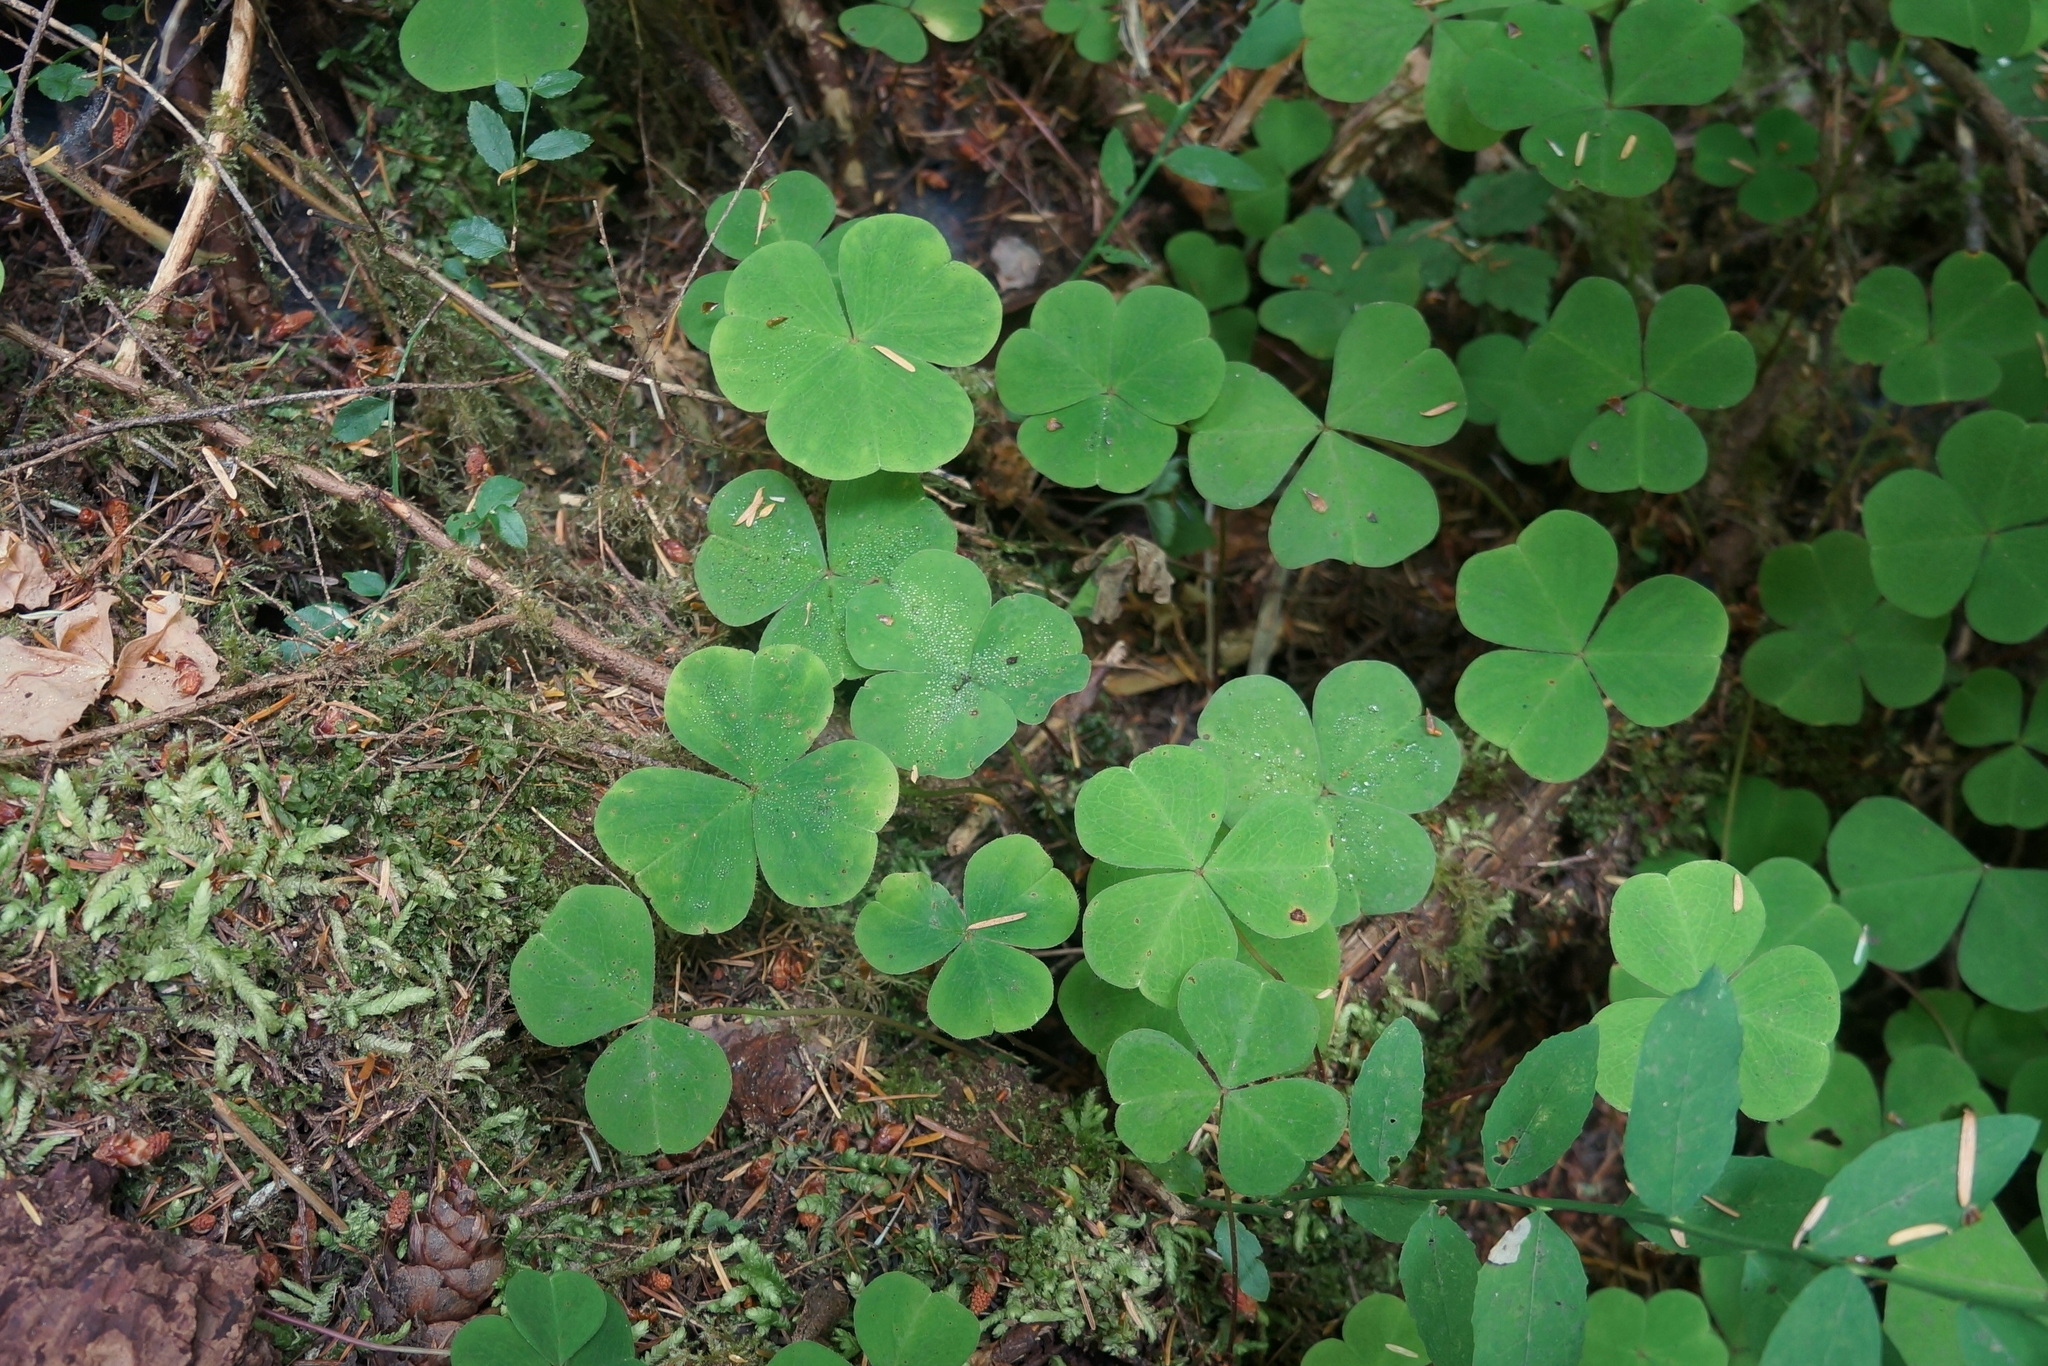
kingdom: Plantae
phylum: Tracheophyta
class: Magnoliopsida
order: Oxalidales
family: Oxalidaceae
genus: Oxalis
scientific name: Oxalis oregana
